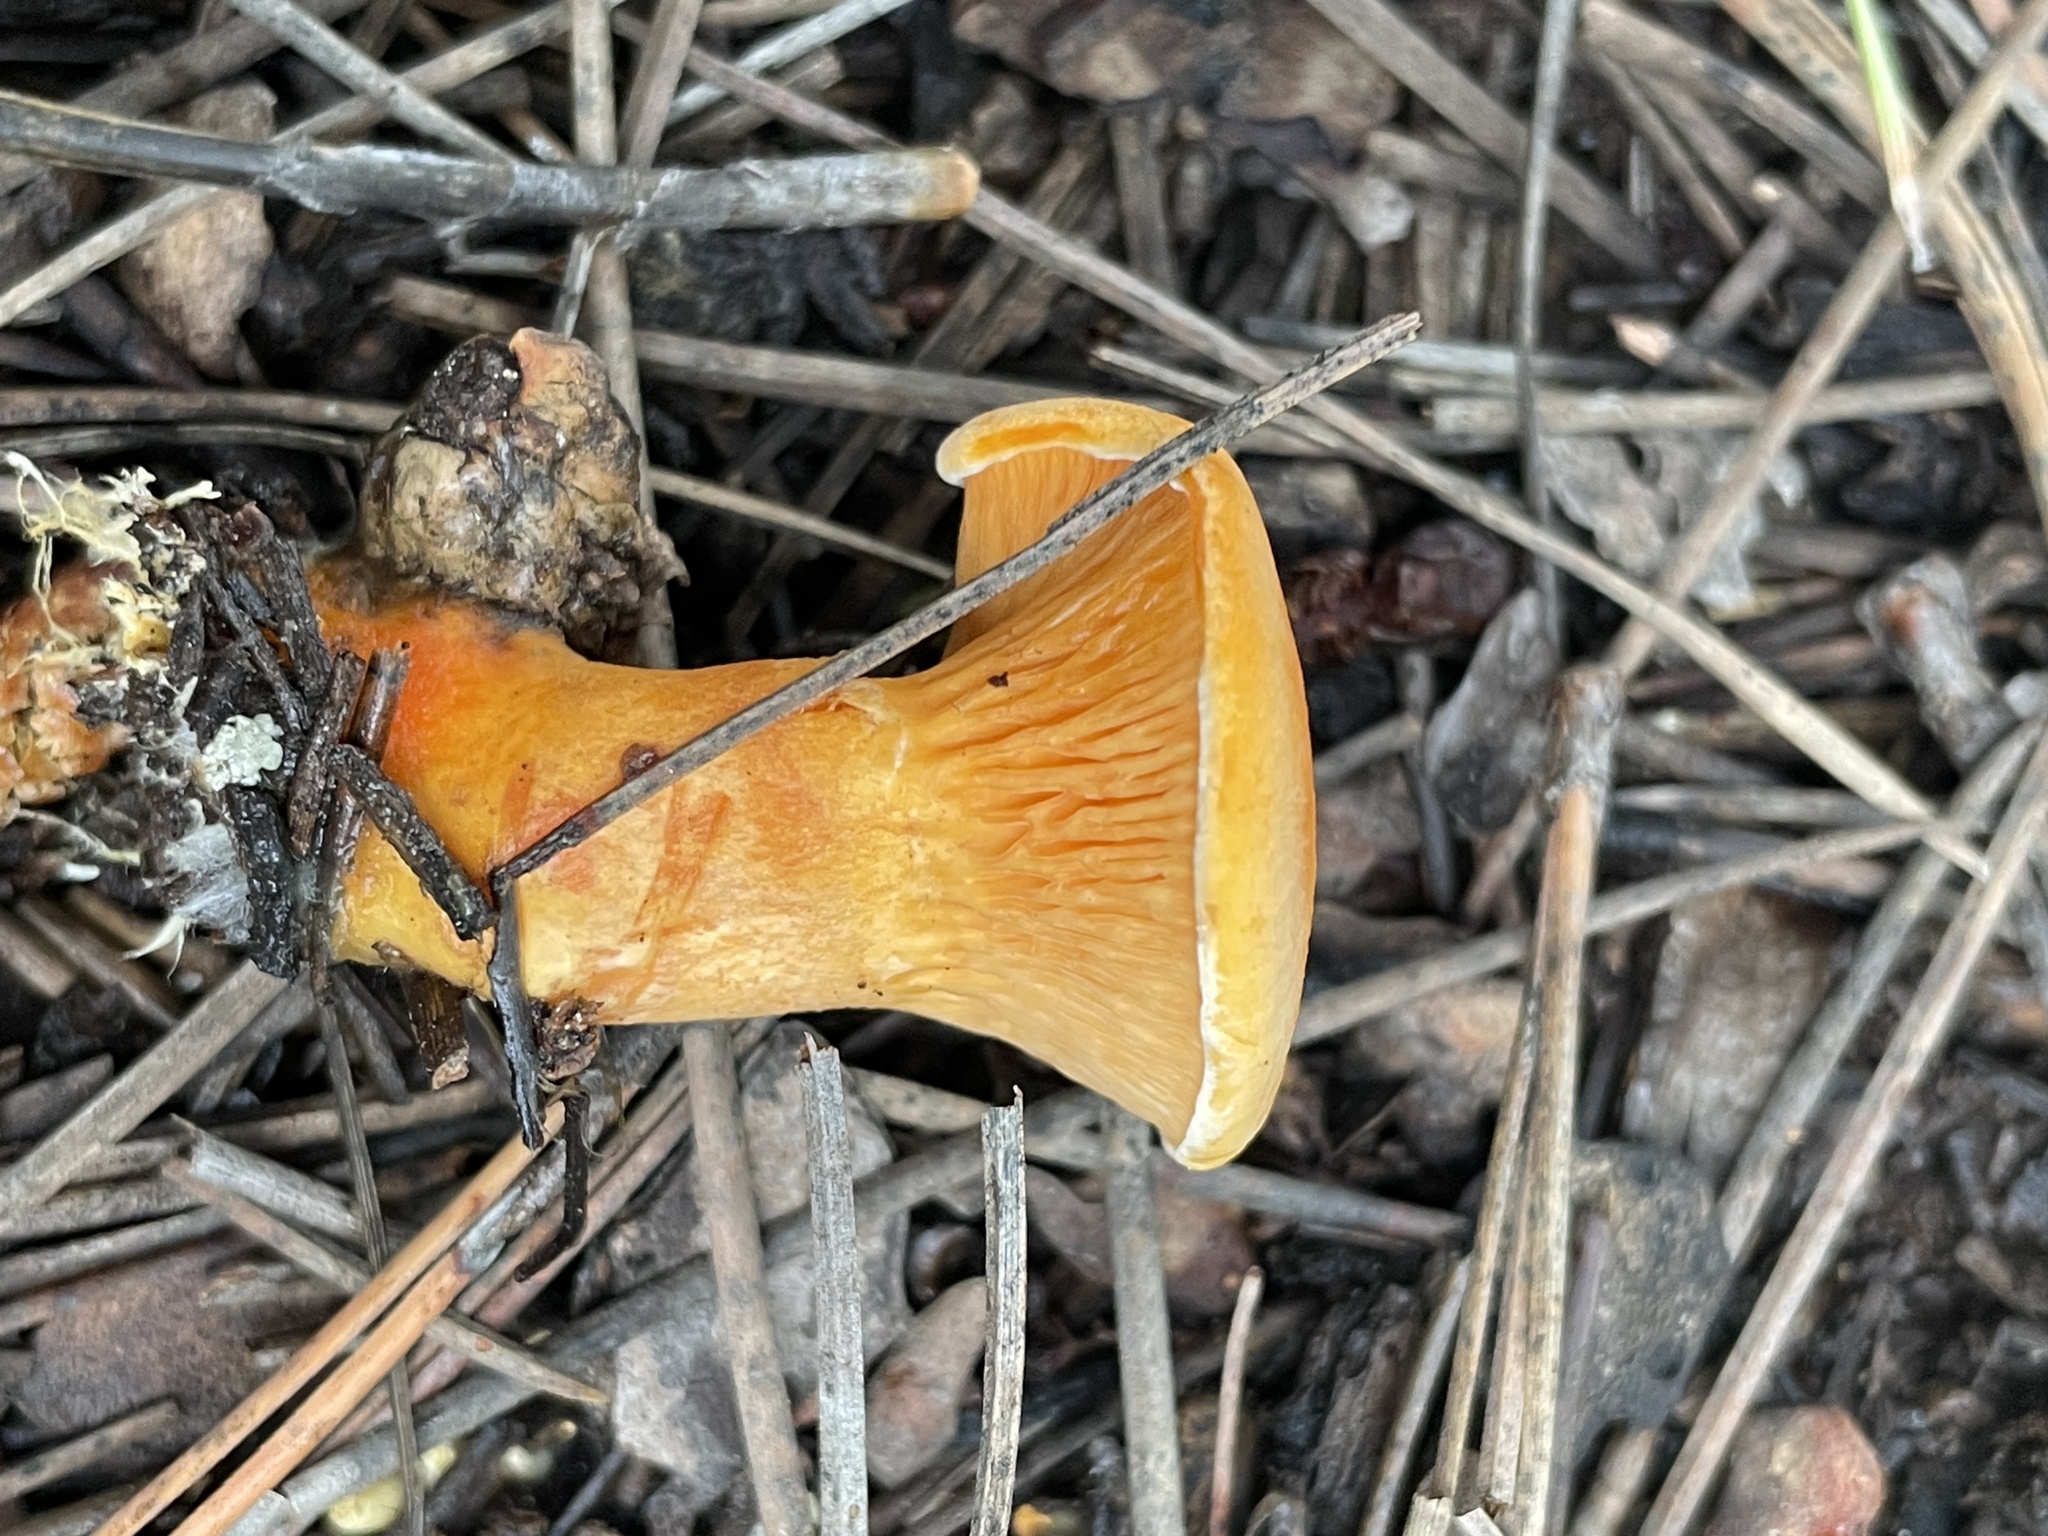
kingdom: Fungi
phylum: Basidiomycota
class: Agaricomycetes
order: Boletales
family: Hygrophoropsidaceae
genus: Hygrophoropsis
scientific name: Hygrophoropsis aurantiaca
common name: False chanterelle
